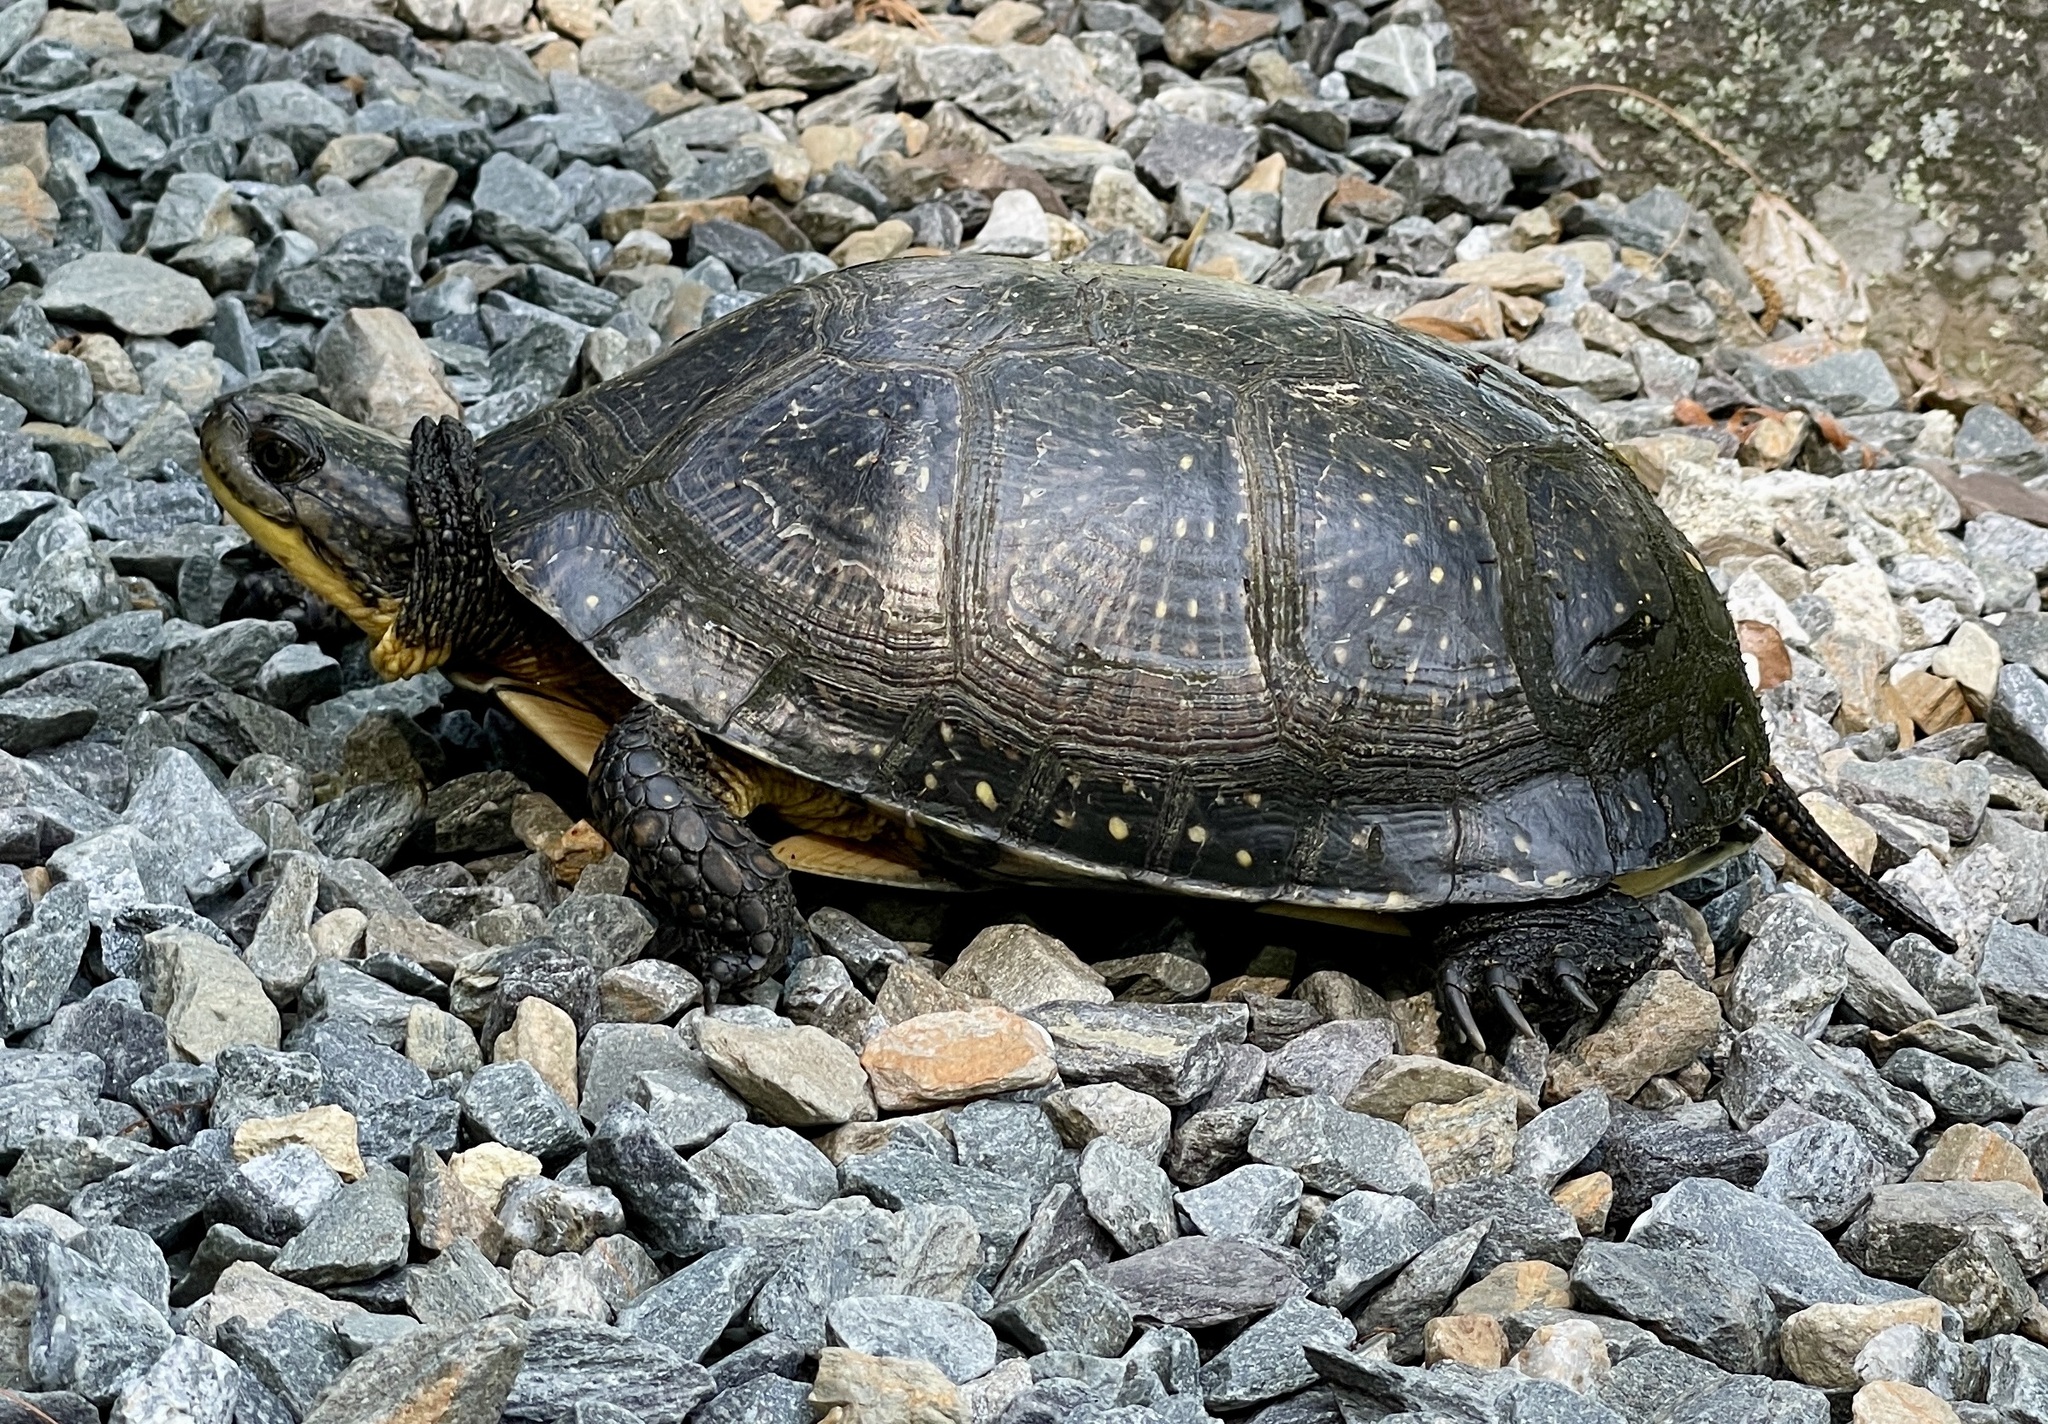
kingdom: Animalia
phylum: Chordata
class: Testudines
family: Emydidae
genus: Emys
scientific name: Emys blandingii
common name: Blanding's turtle
